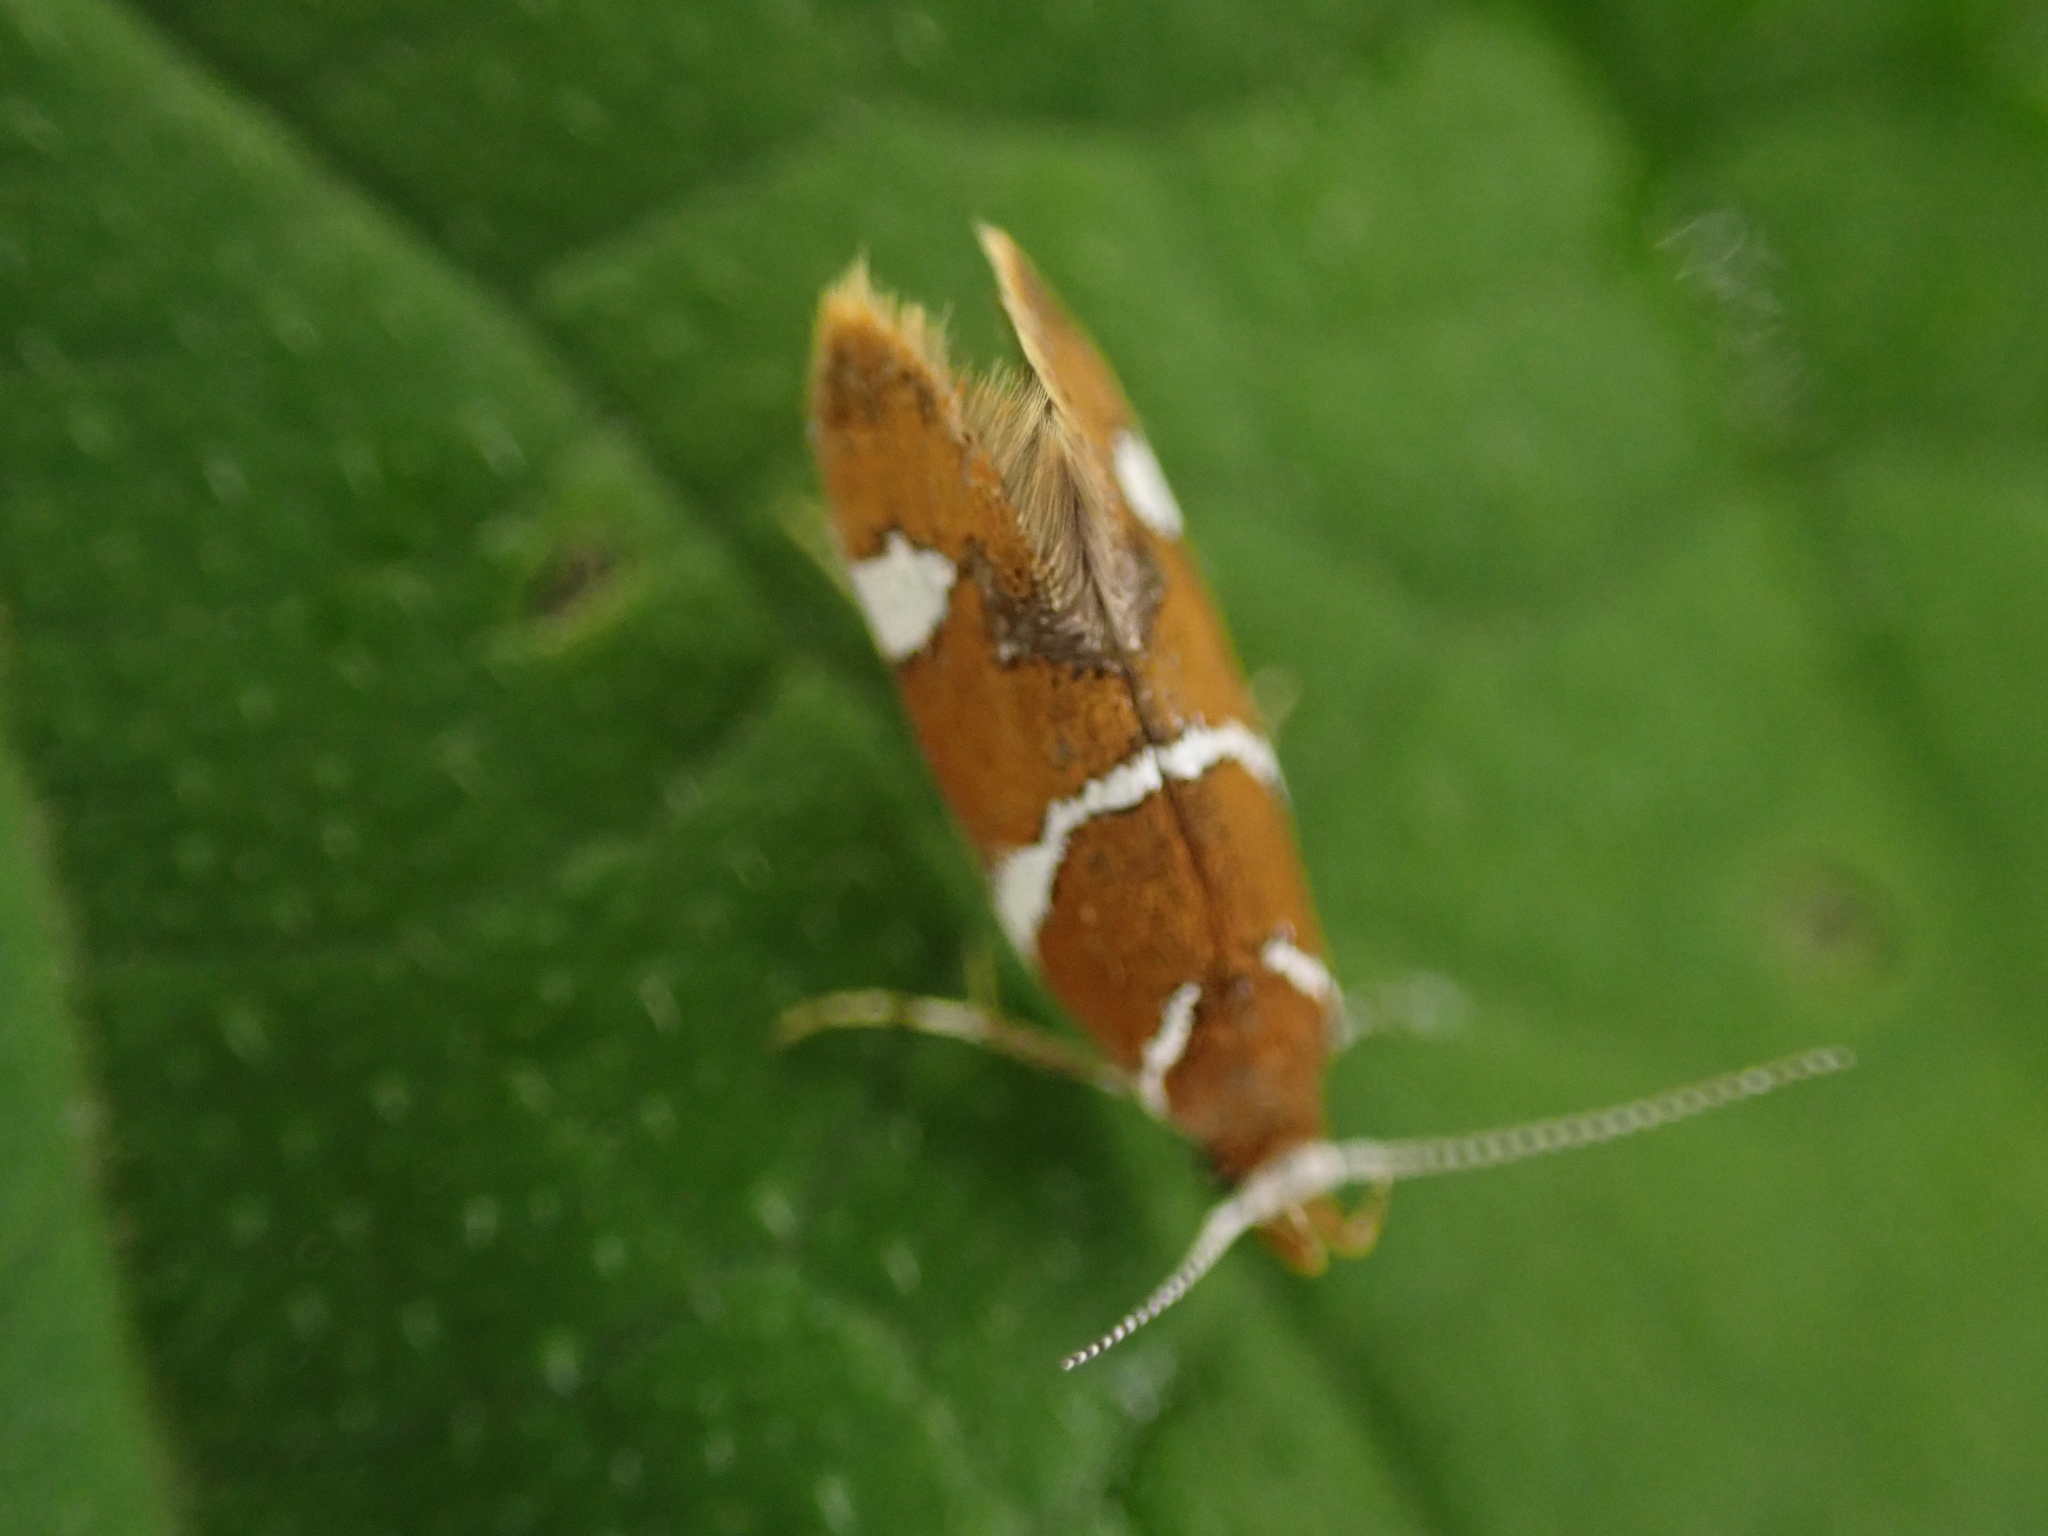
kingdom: Animalia
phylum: Arthropoda
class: Insecta
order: Lepidoptera
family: Oecophoridae
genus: Promalactis
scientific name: Promalactis suzukiella
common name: Moth
